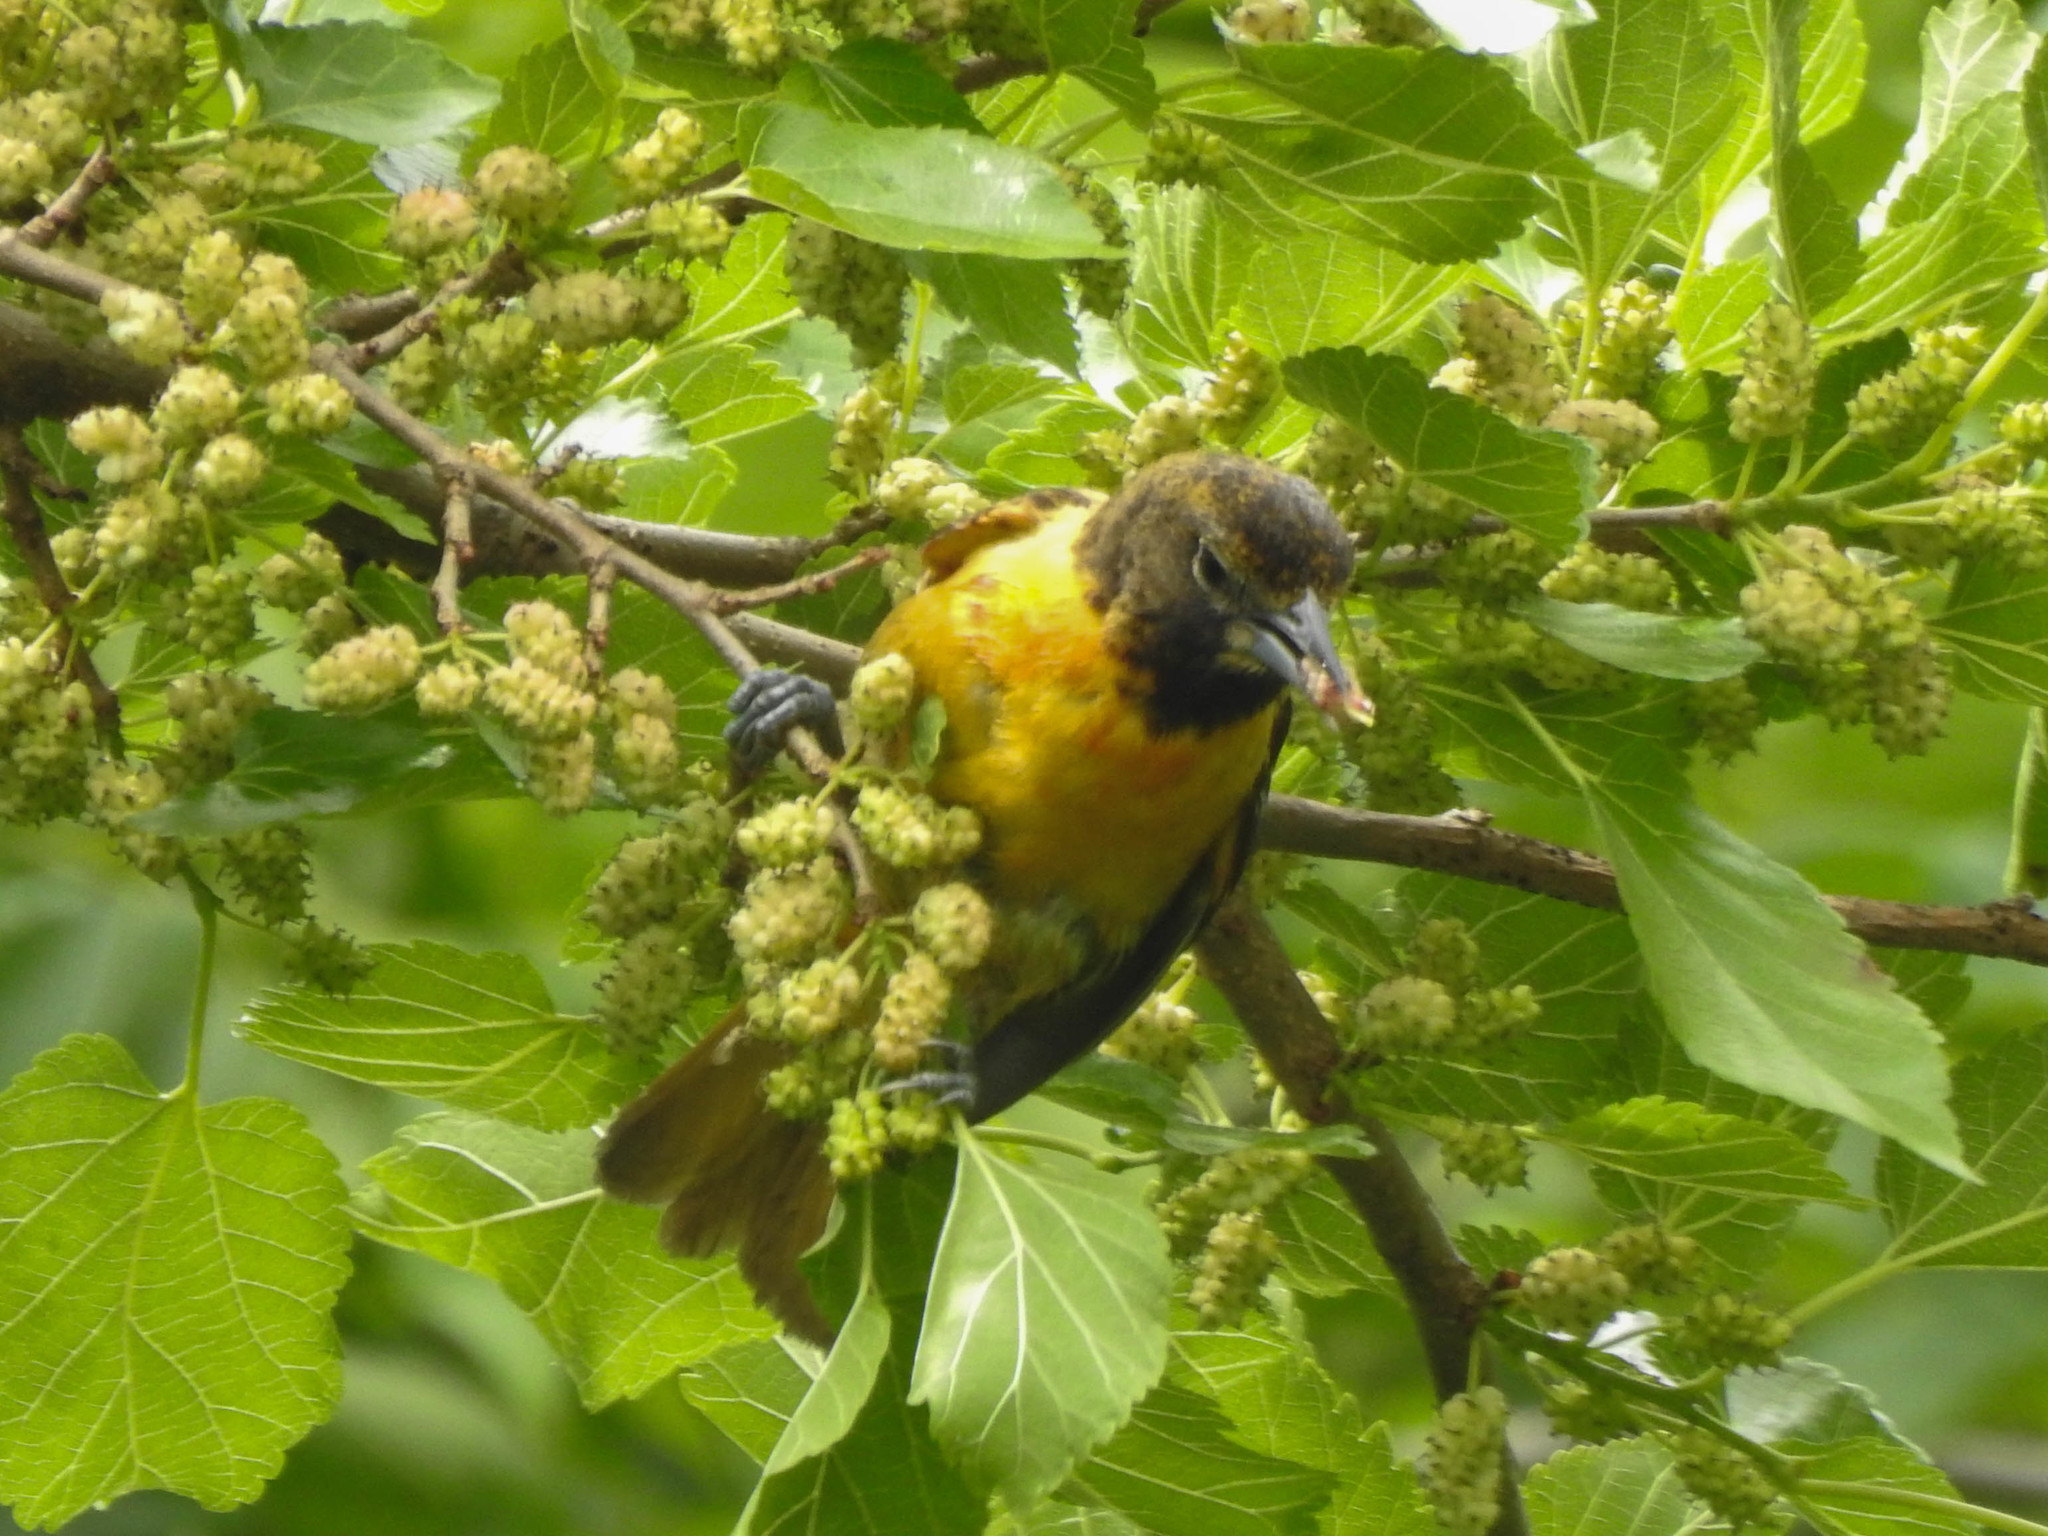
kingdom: Animalia
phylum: Chordata
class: Aves
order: Passeriformes
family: Icteridae
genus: Icterus
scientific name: Icterus galbula
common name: Baltimore oriole
